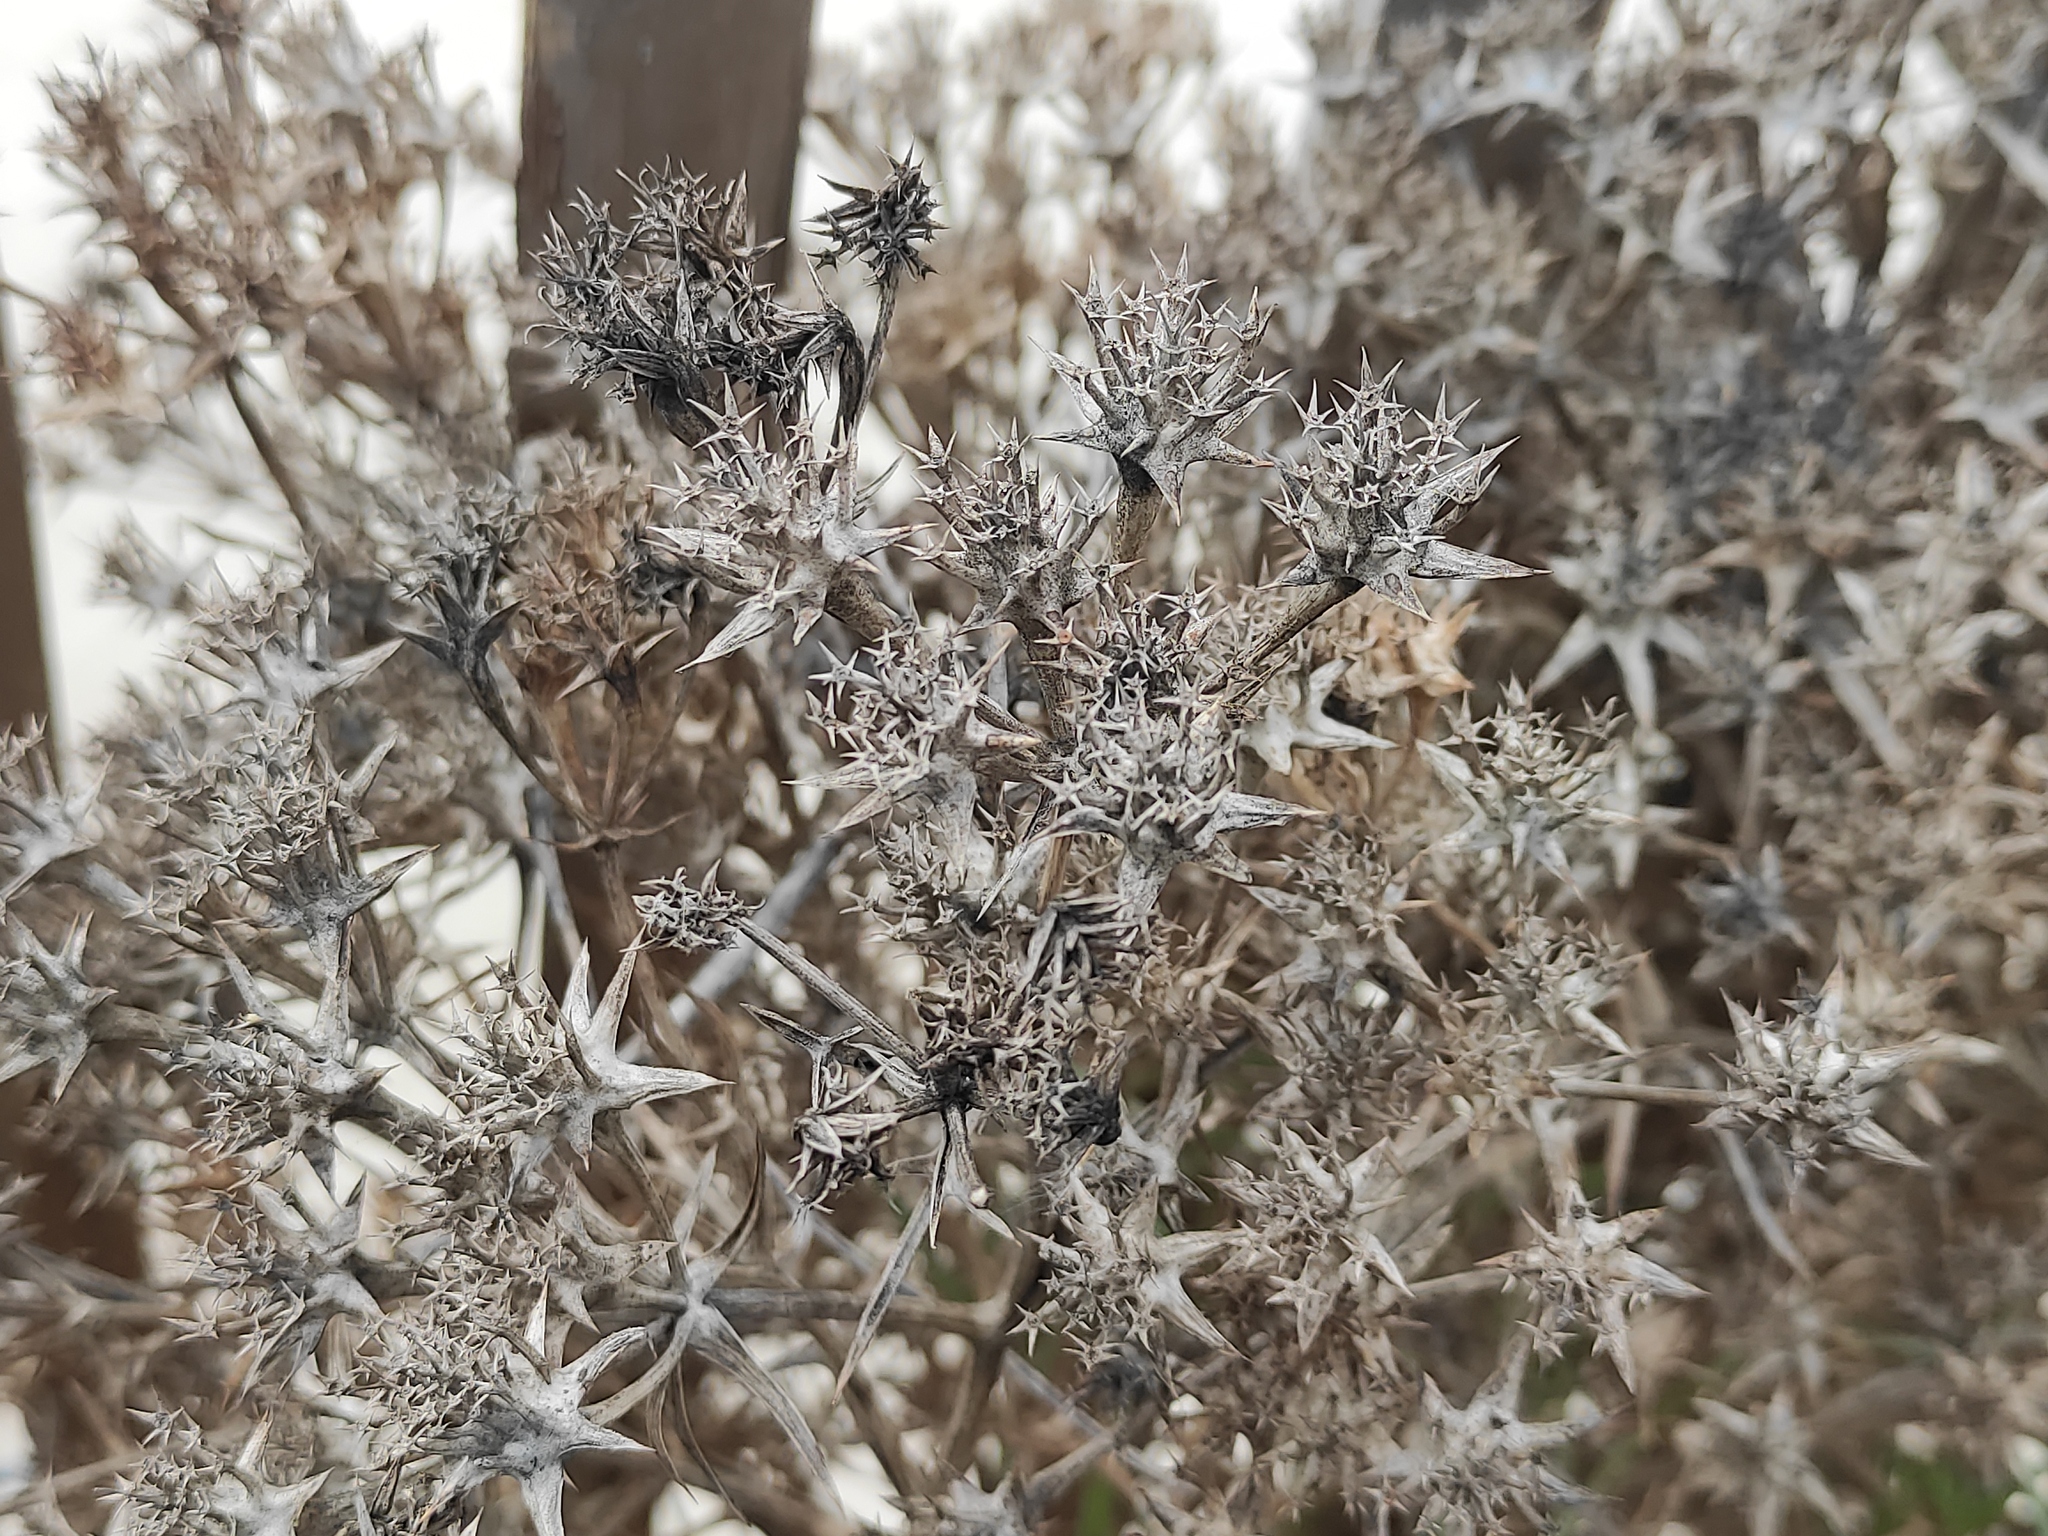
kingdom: Plantae
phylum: Tracheophyta
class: Magnoliopsida
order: Apiales
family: Apiaceae
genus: Echinophora
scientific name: Echinophora spinosa
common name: Prickly samphire
